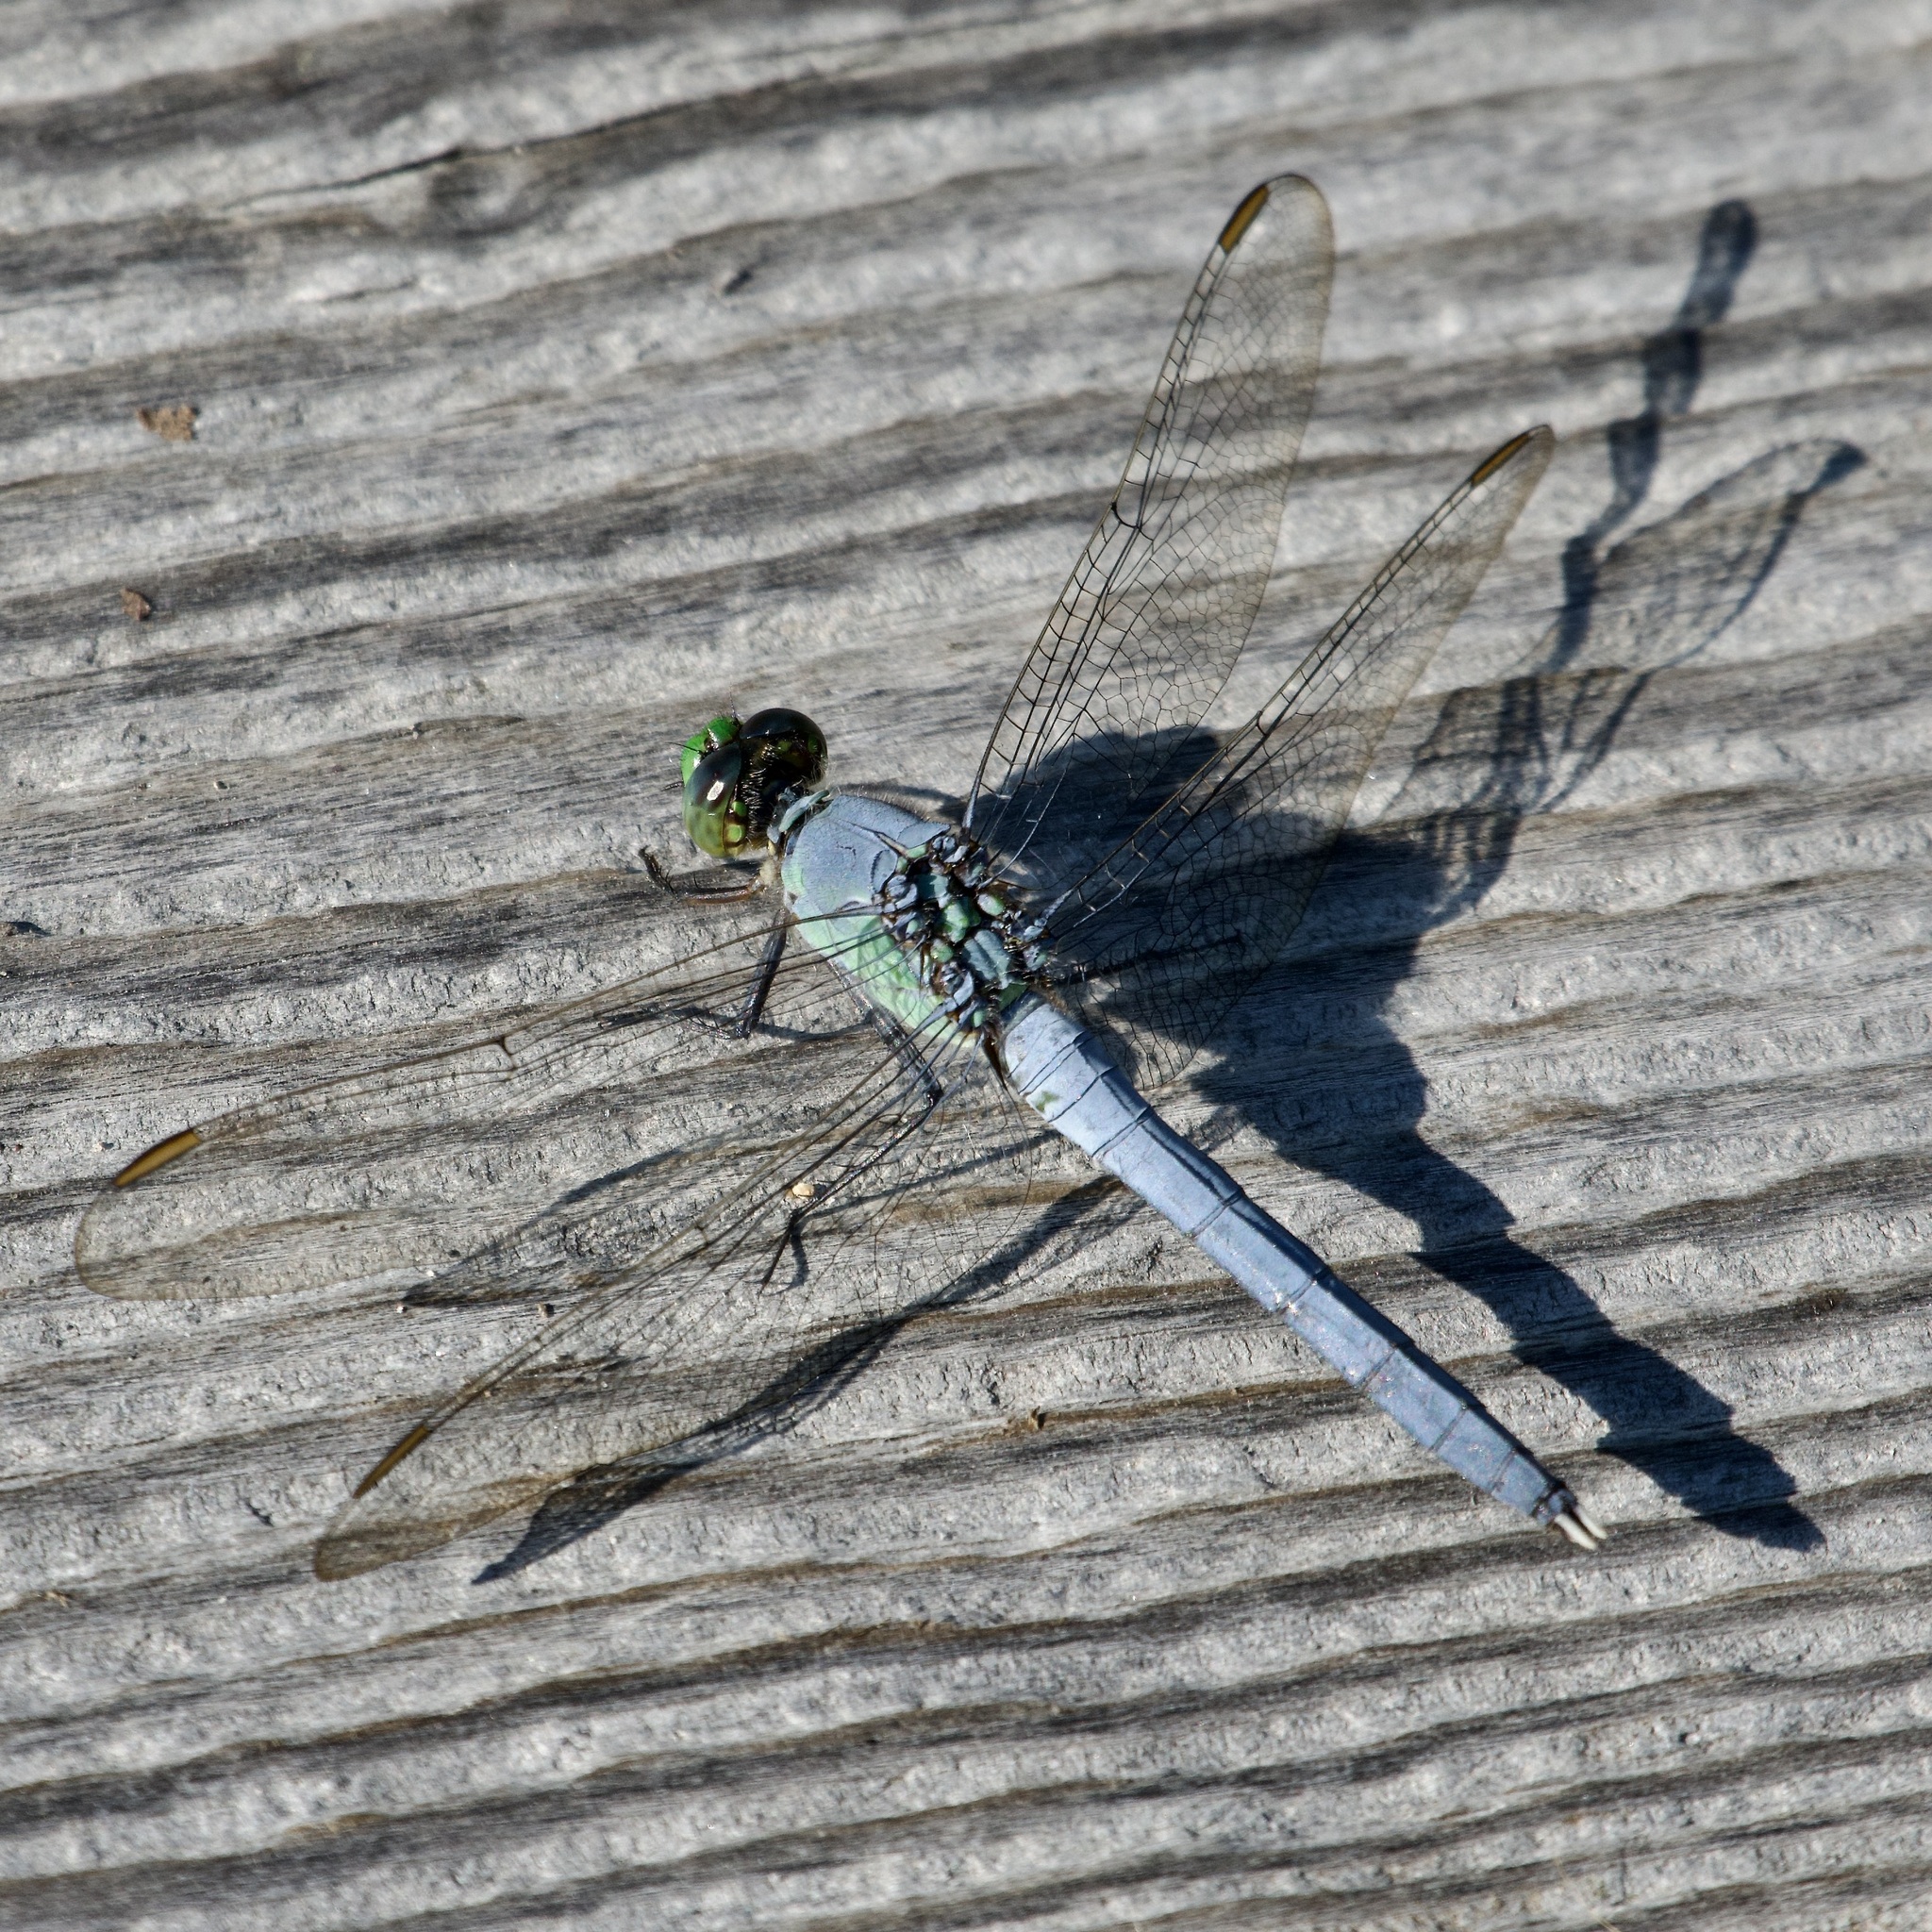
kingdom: Animalia
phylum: Arthropoda
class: Insecta
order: Odonata
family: Libellulidae
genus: Erythemis
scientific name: Erythemis simplicicollis
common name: Eastern pondhawk
